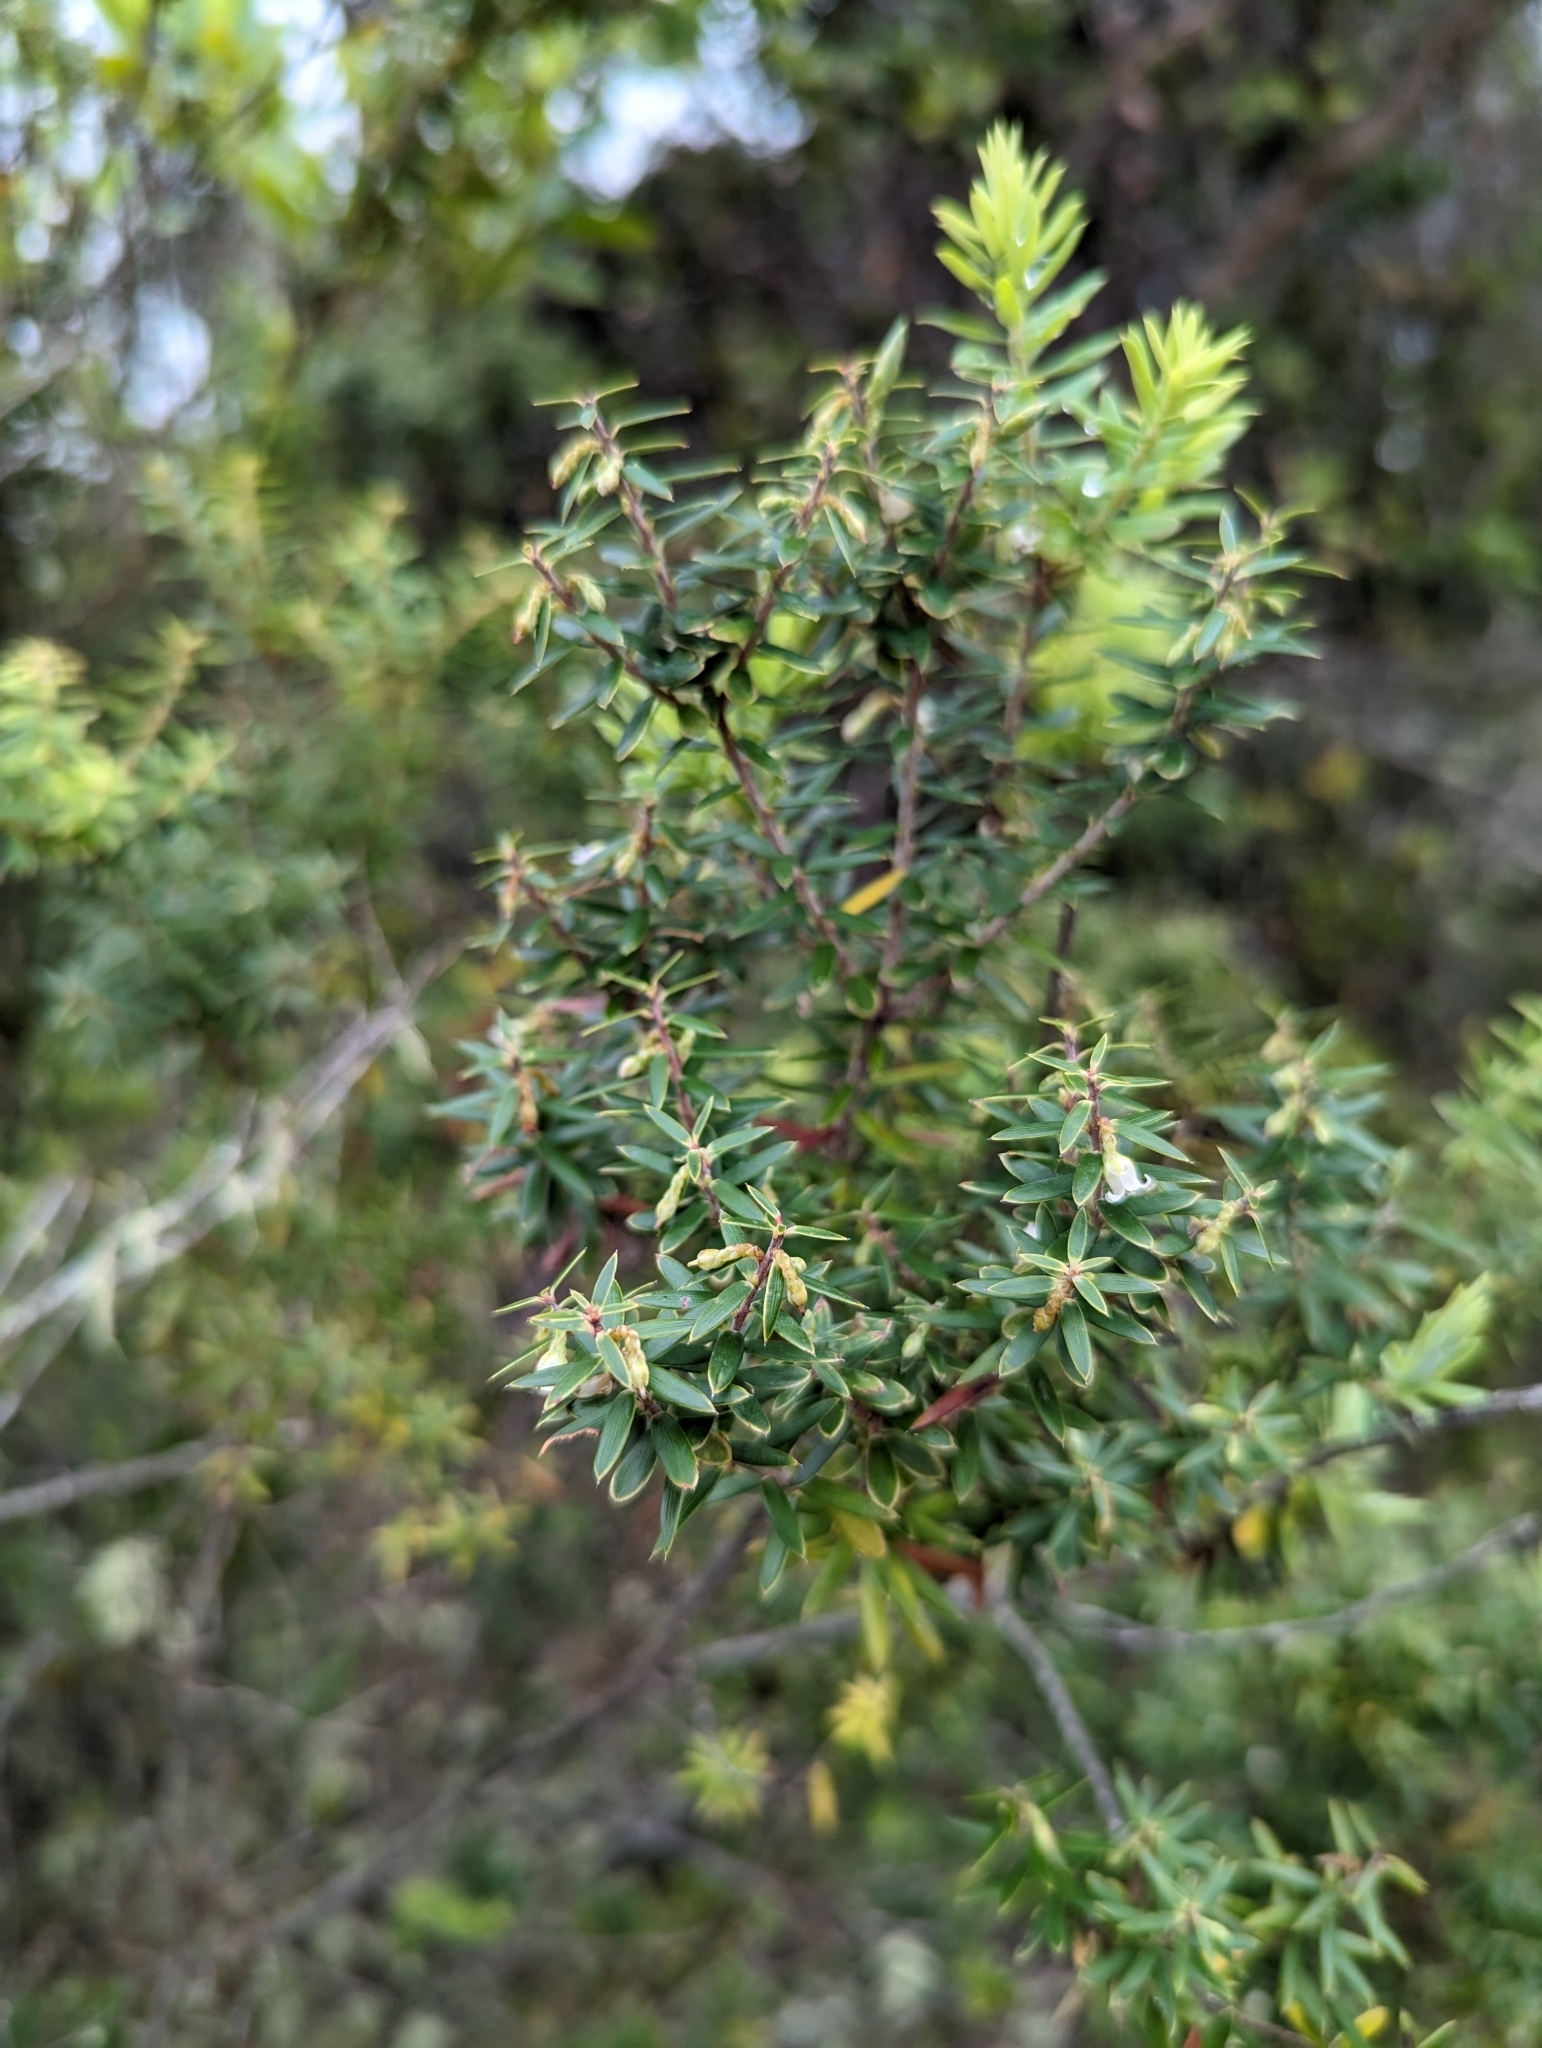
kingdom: Plantae
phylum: Tracheophyta
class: Magnoliopsida
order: Ericales
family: Ericaceae
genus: Leptecophylla
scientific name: Leptecophylla tameiameiae
